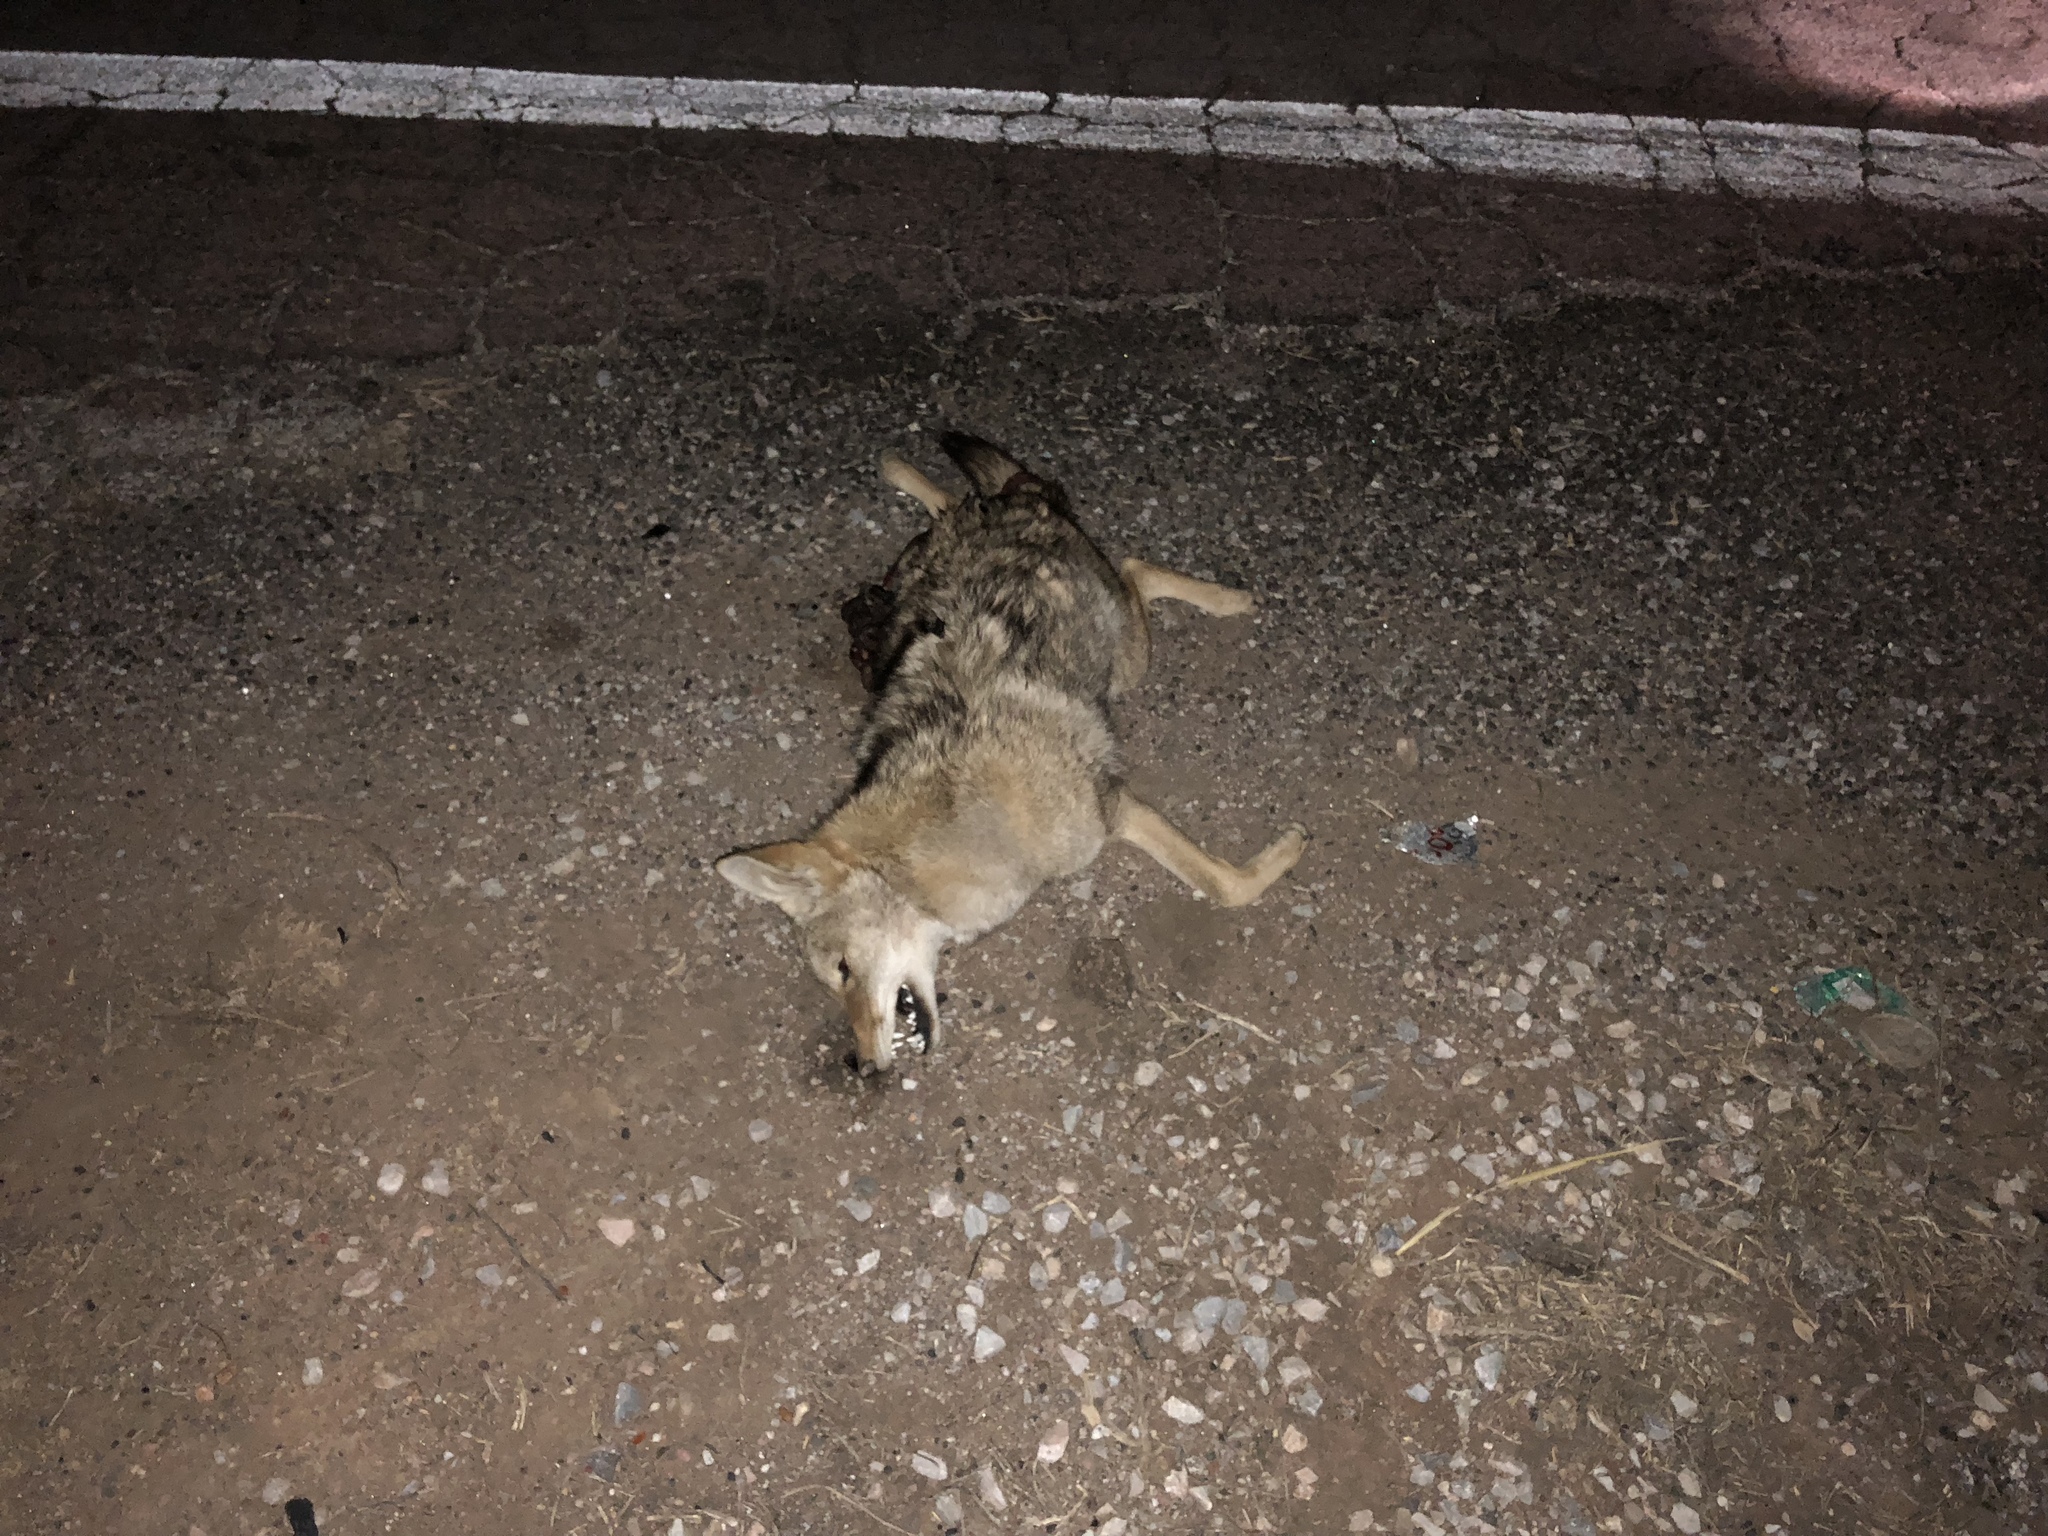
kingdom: Animalia
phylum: Chordata
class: Mammalia
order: Carnivora
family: Canidae
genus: Canis
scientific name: Canis latrans
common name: Coyote
